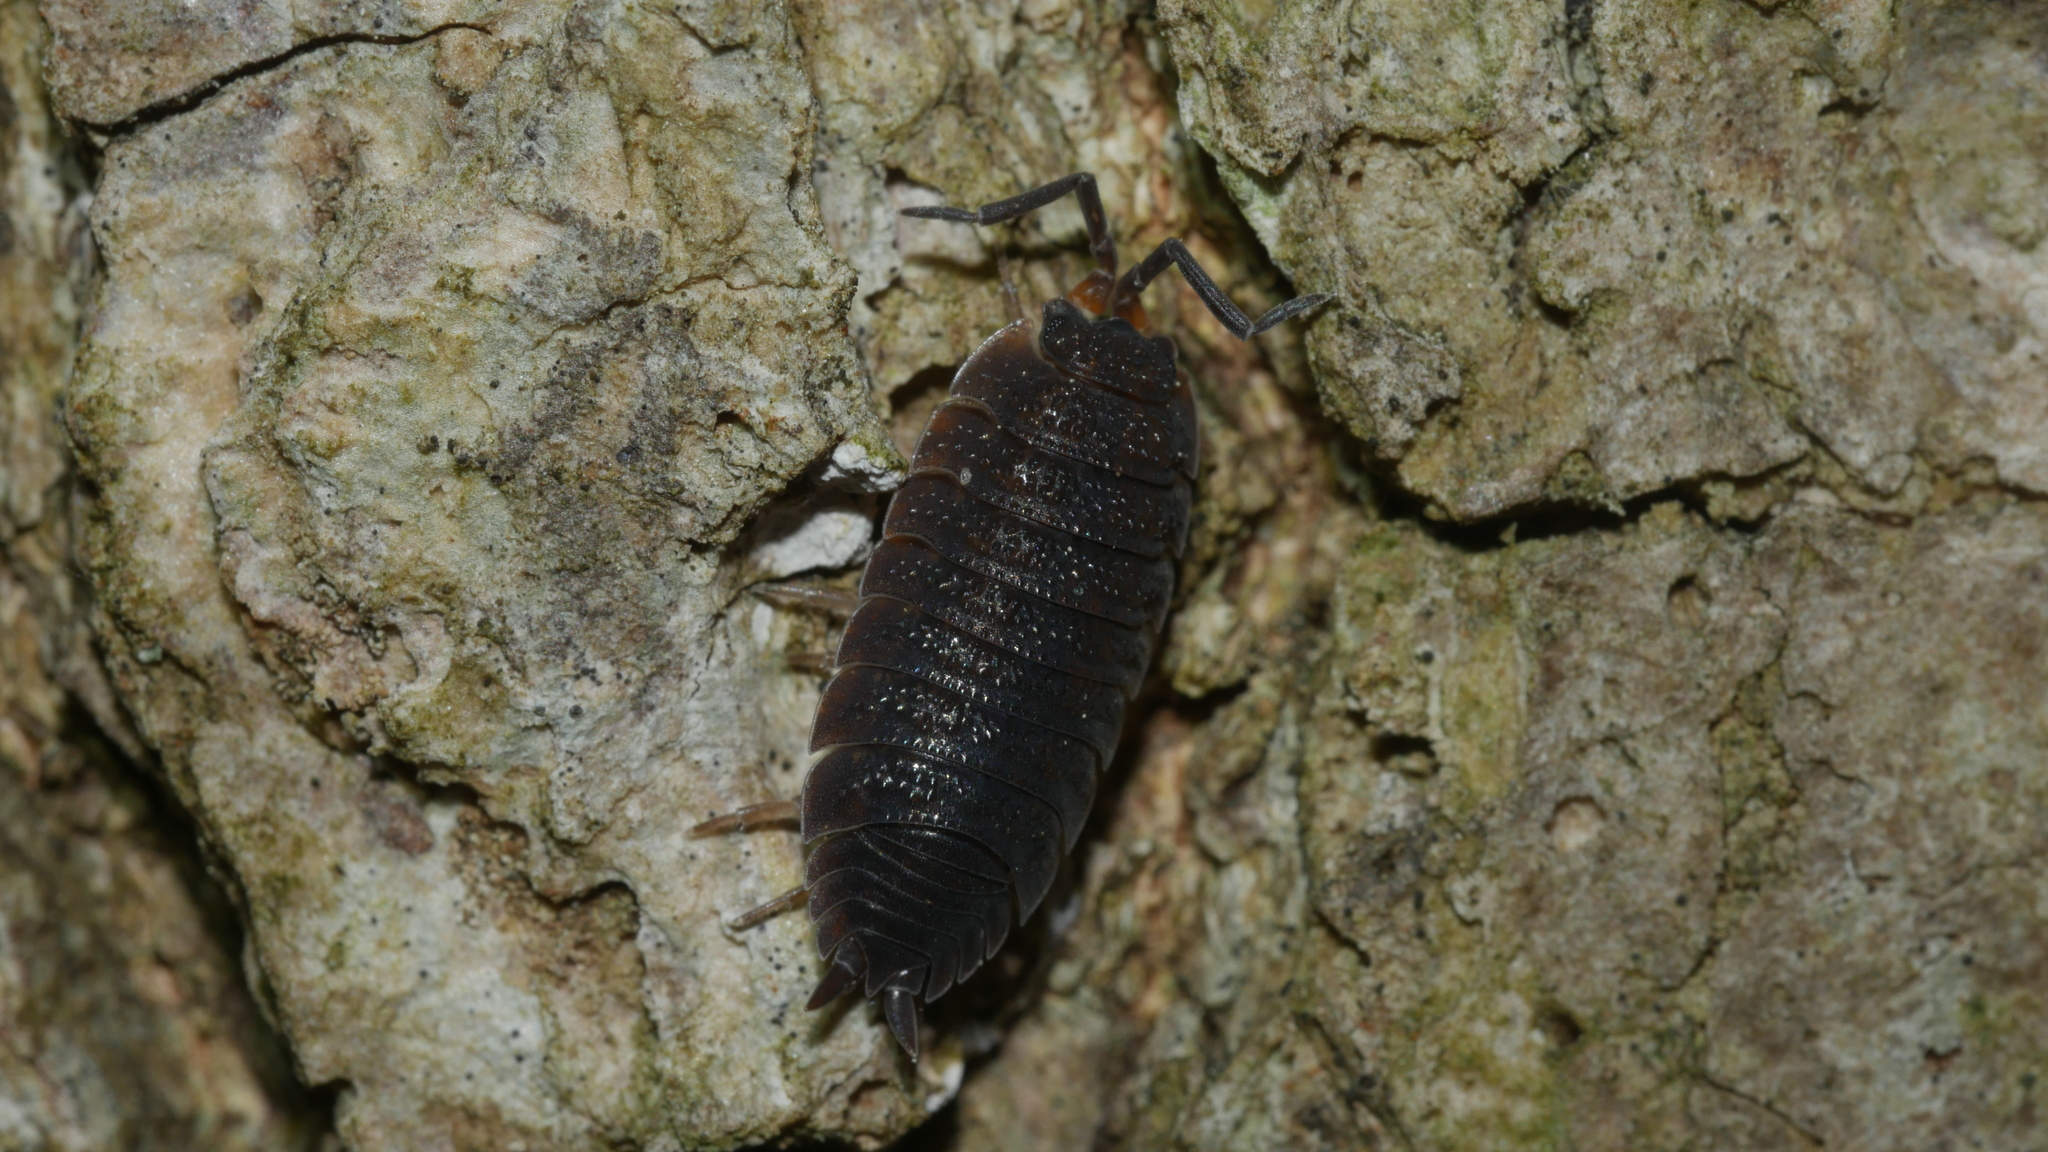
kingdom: Animalia
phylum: Arthropoda
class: Malacostraca
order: Isopoda
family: Porcellionidae
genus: Porcellio
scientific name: Porcellio scaber
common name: Common rough woodlouse
